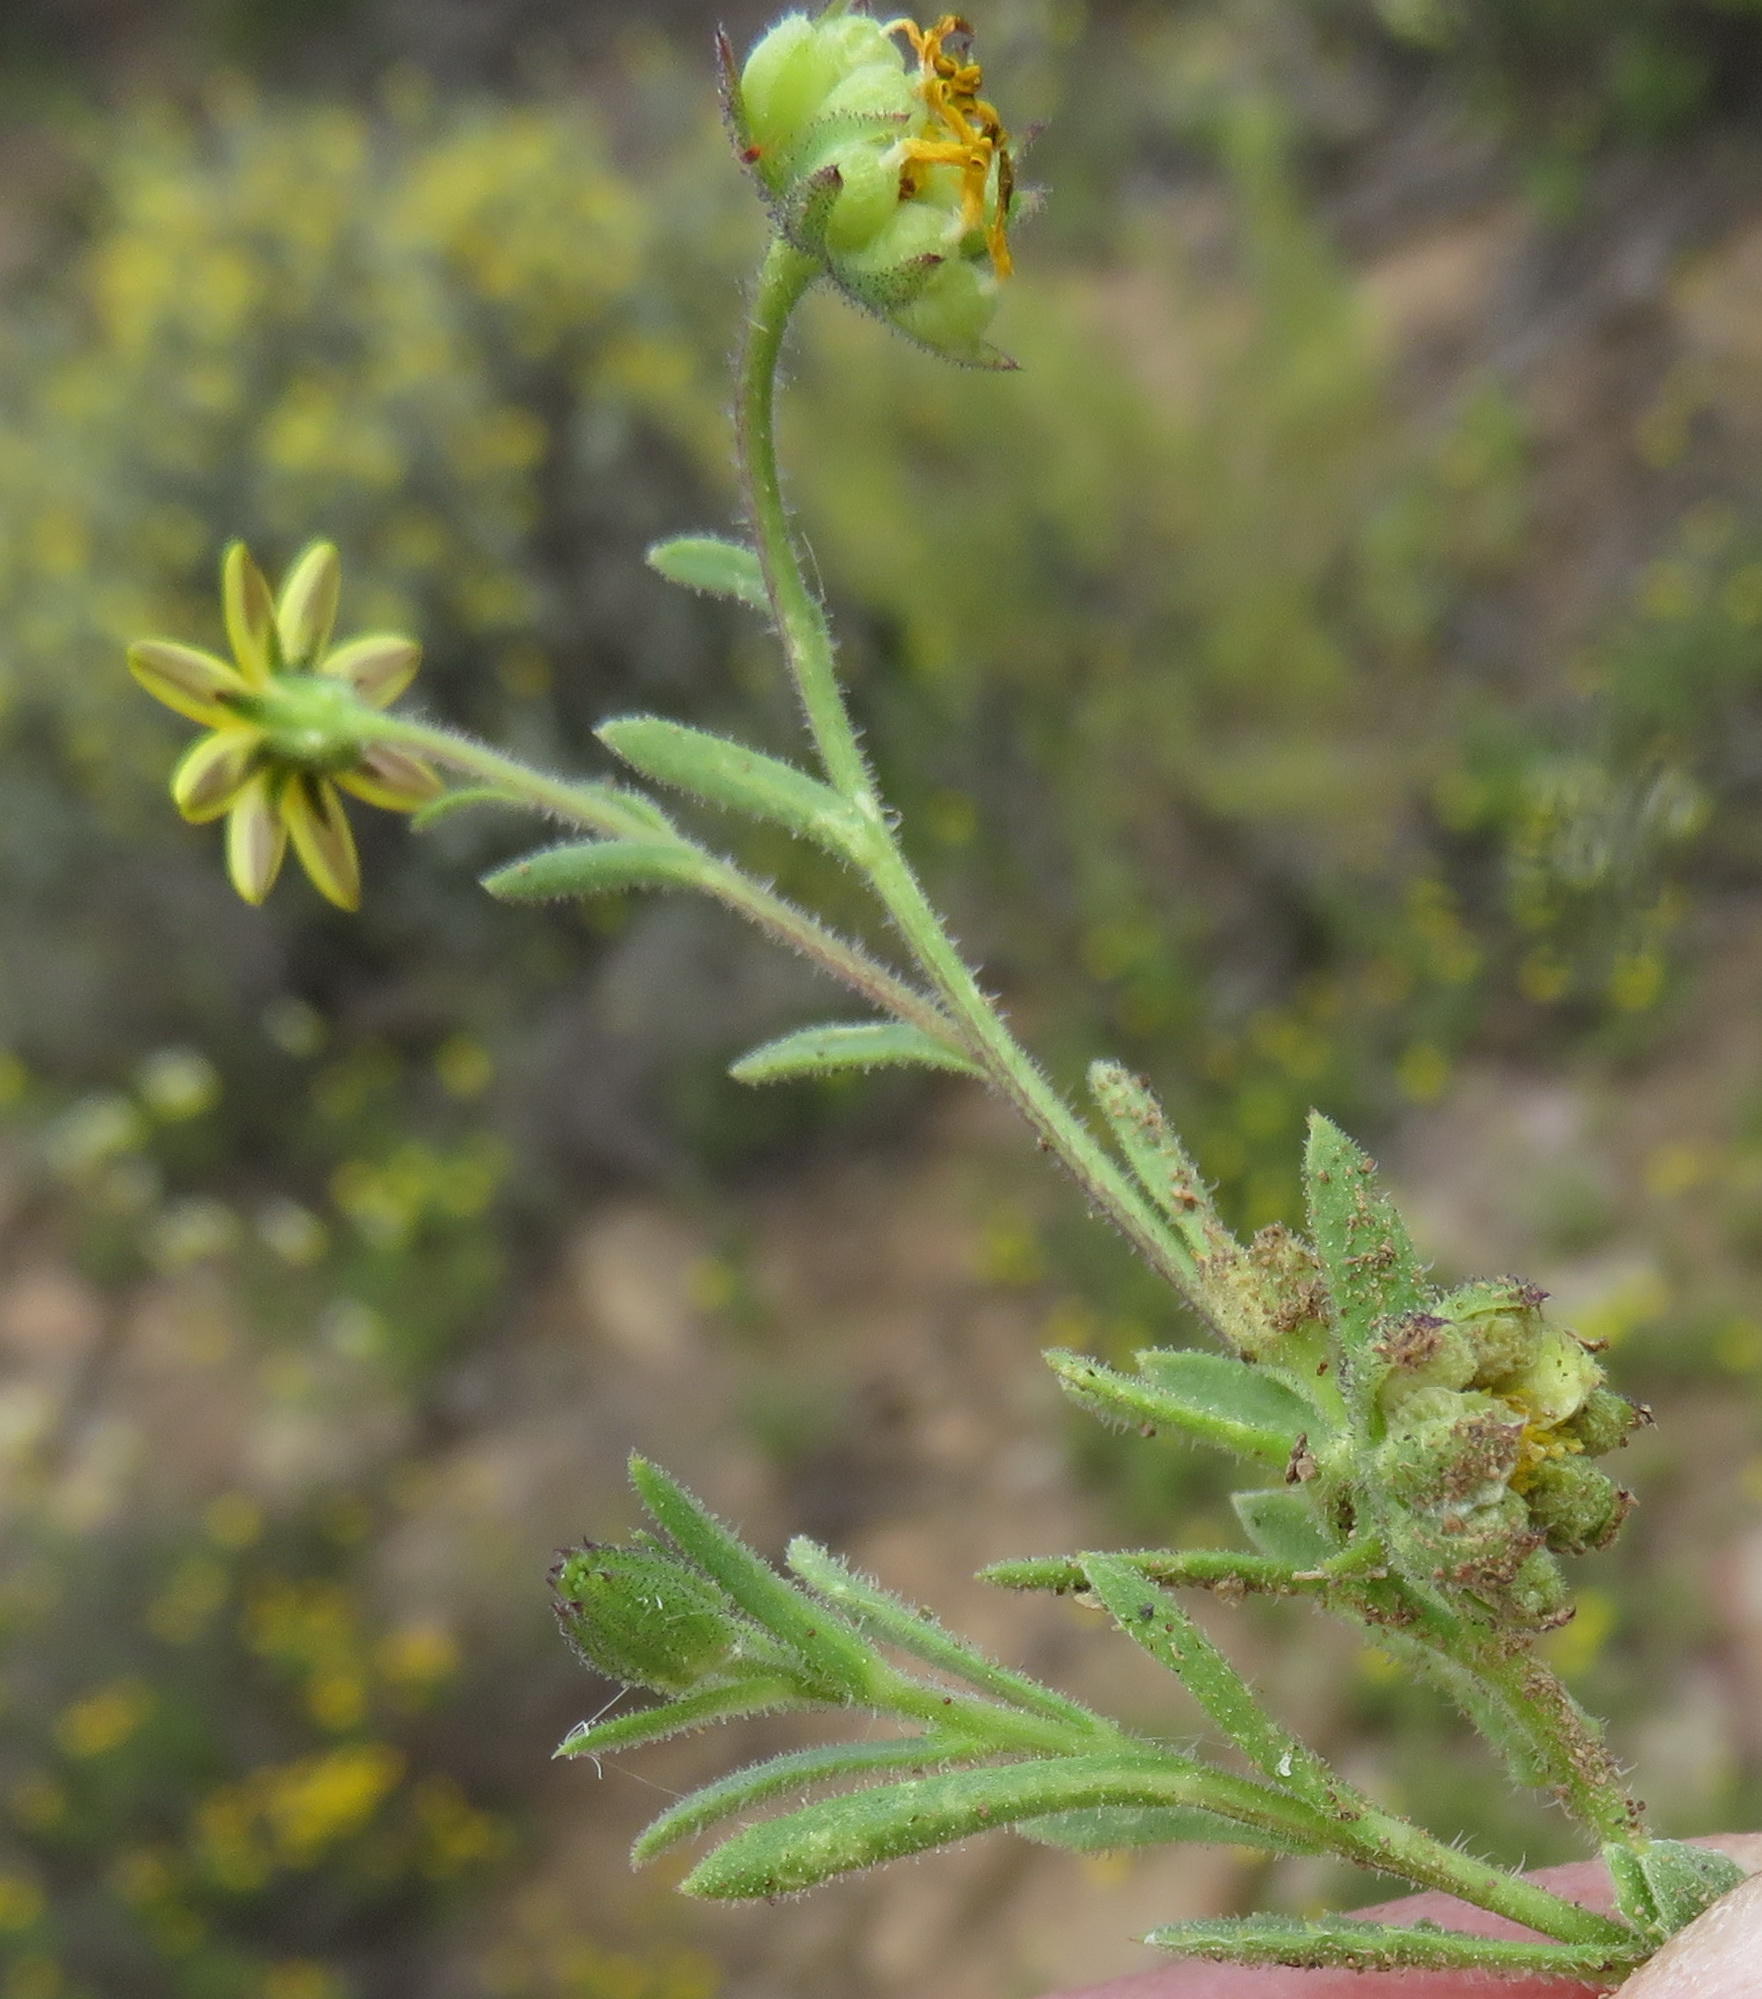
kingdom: Plantae
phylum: Tracheophyta
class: Magnoliopsida
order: Asterales
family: Asteraceae
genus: Osteospermum
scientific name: Osteospermum calendulaceum
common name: Stinking roger
